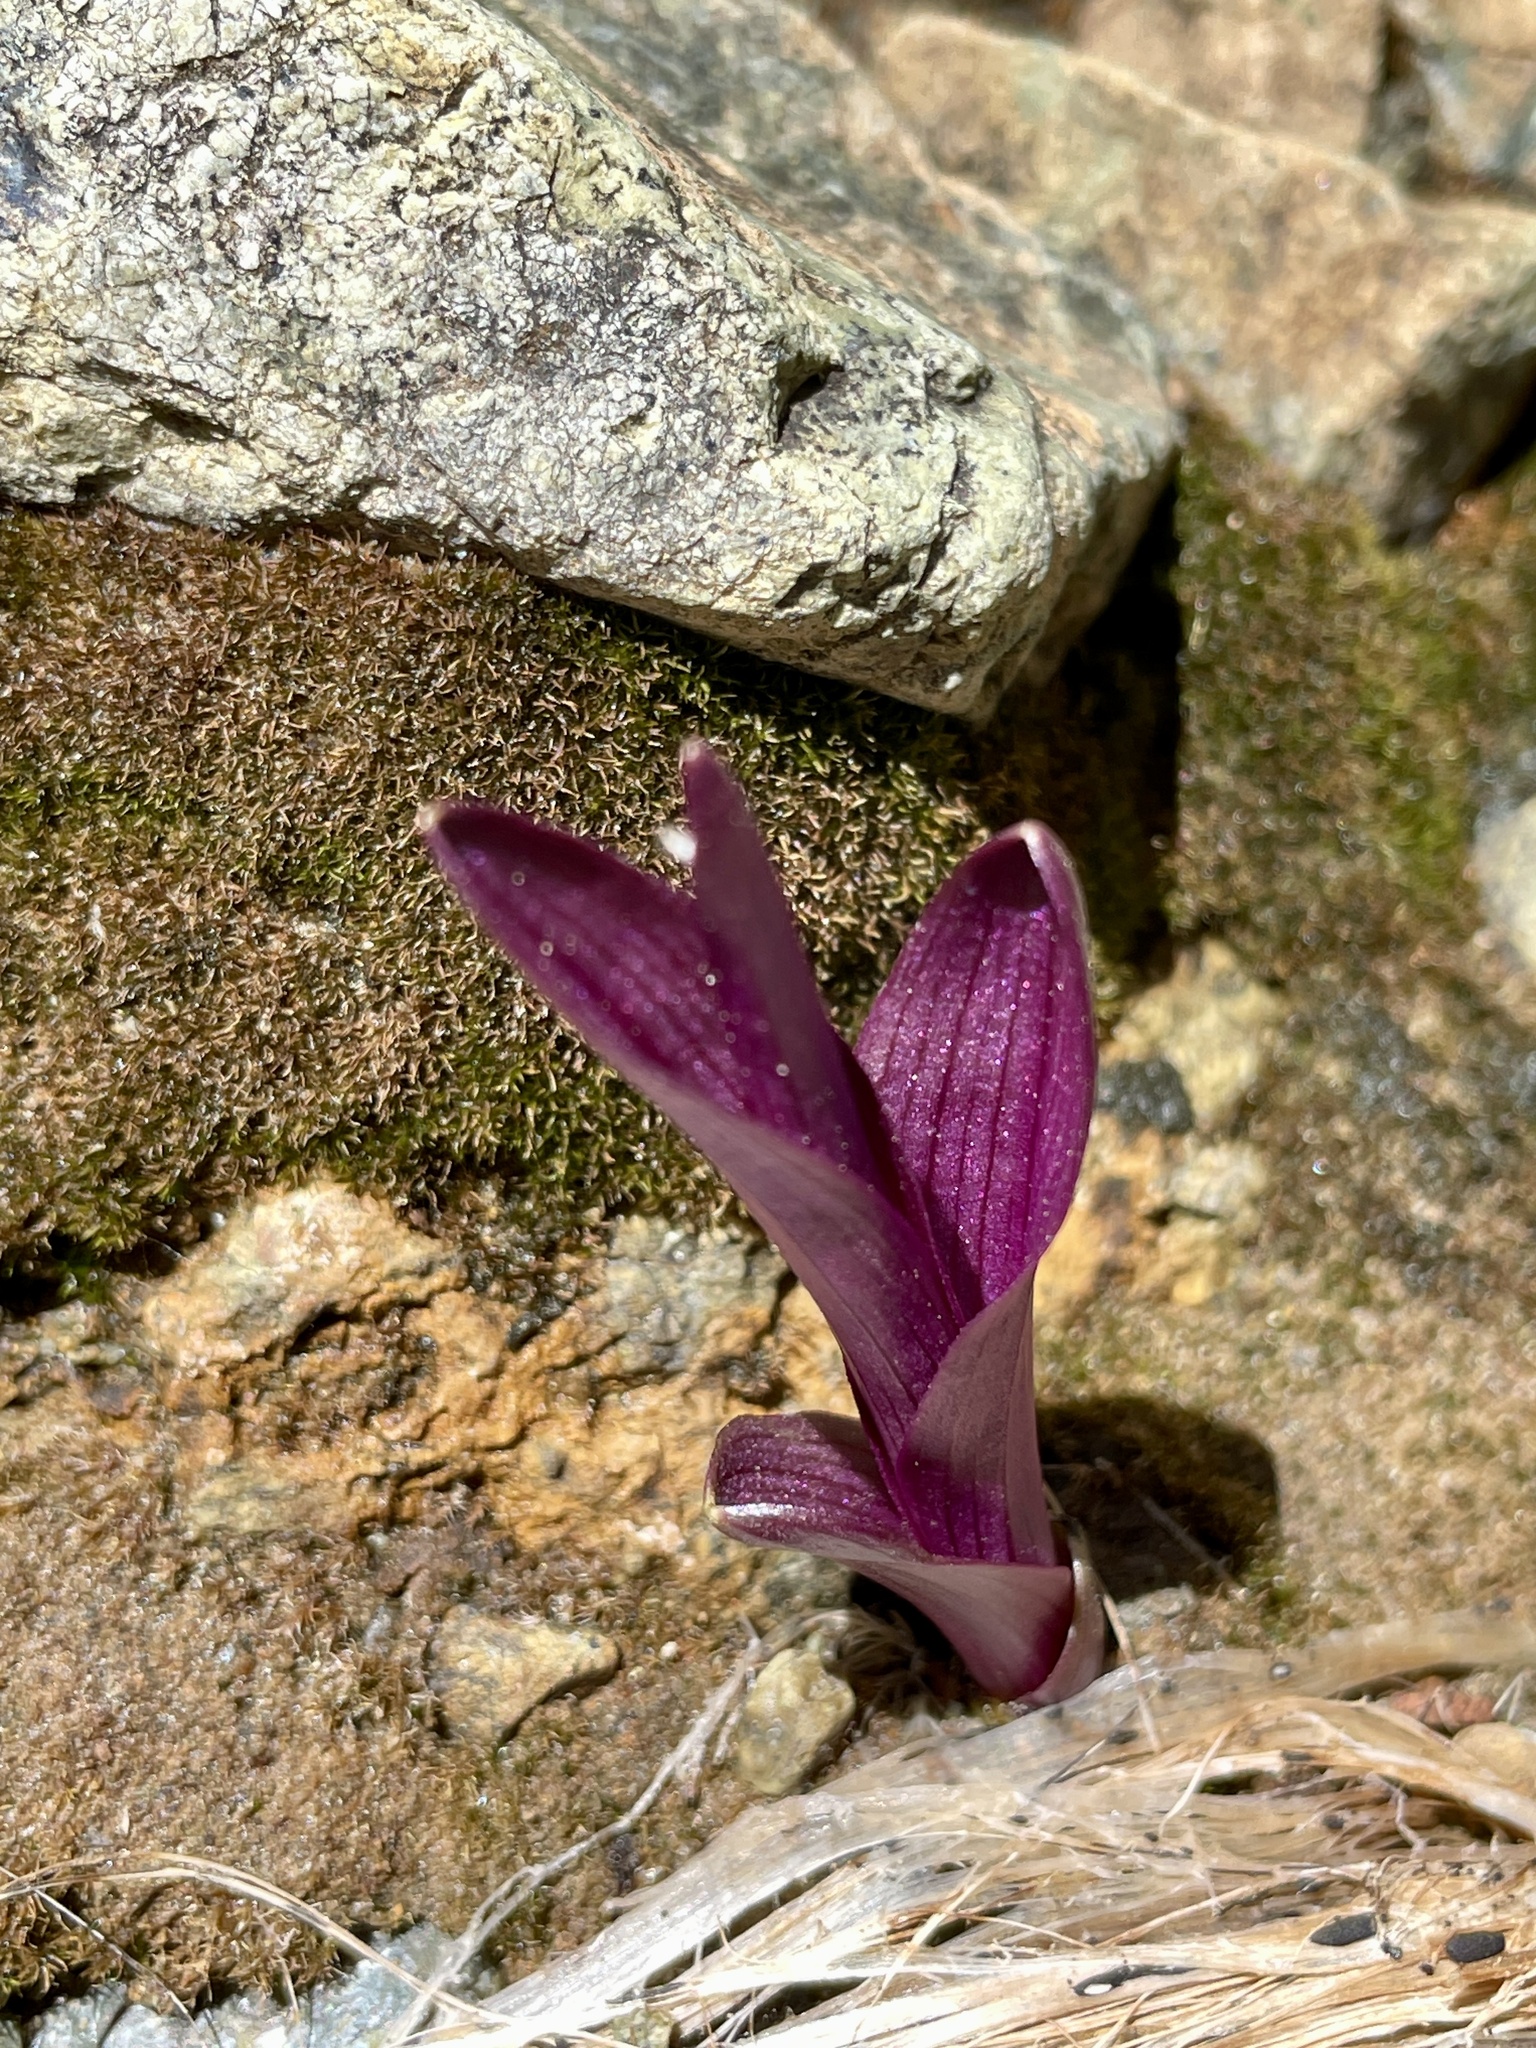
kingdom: Plantae
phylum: Tracheophyta
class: Liliopsida
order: Asparagales
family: Orchidaceae
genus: Epipactis
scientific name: Epipactis gigantea
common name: Chatterbox
